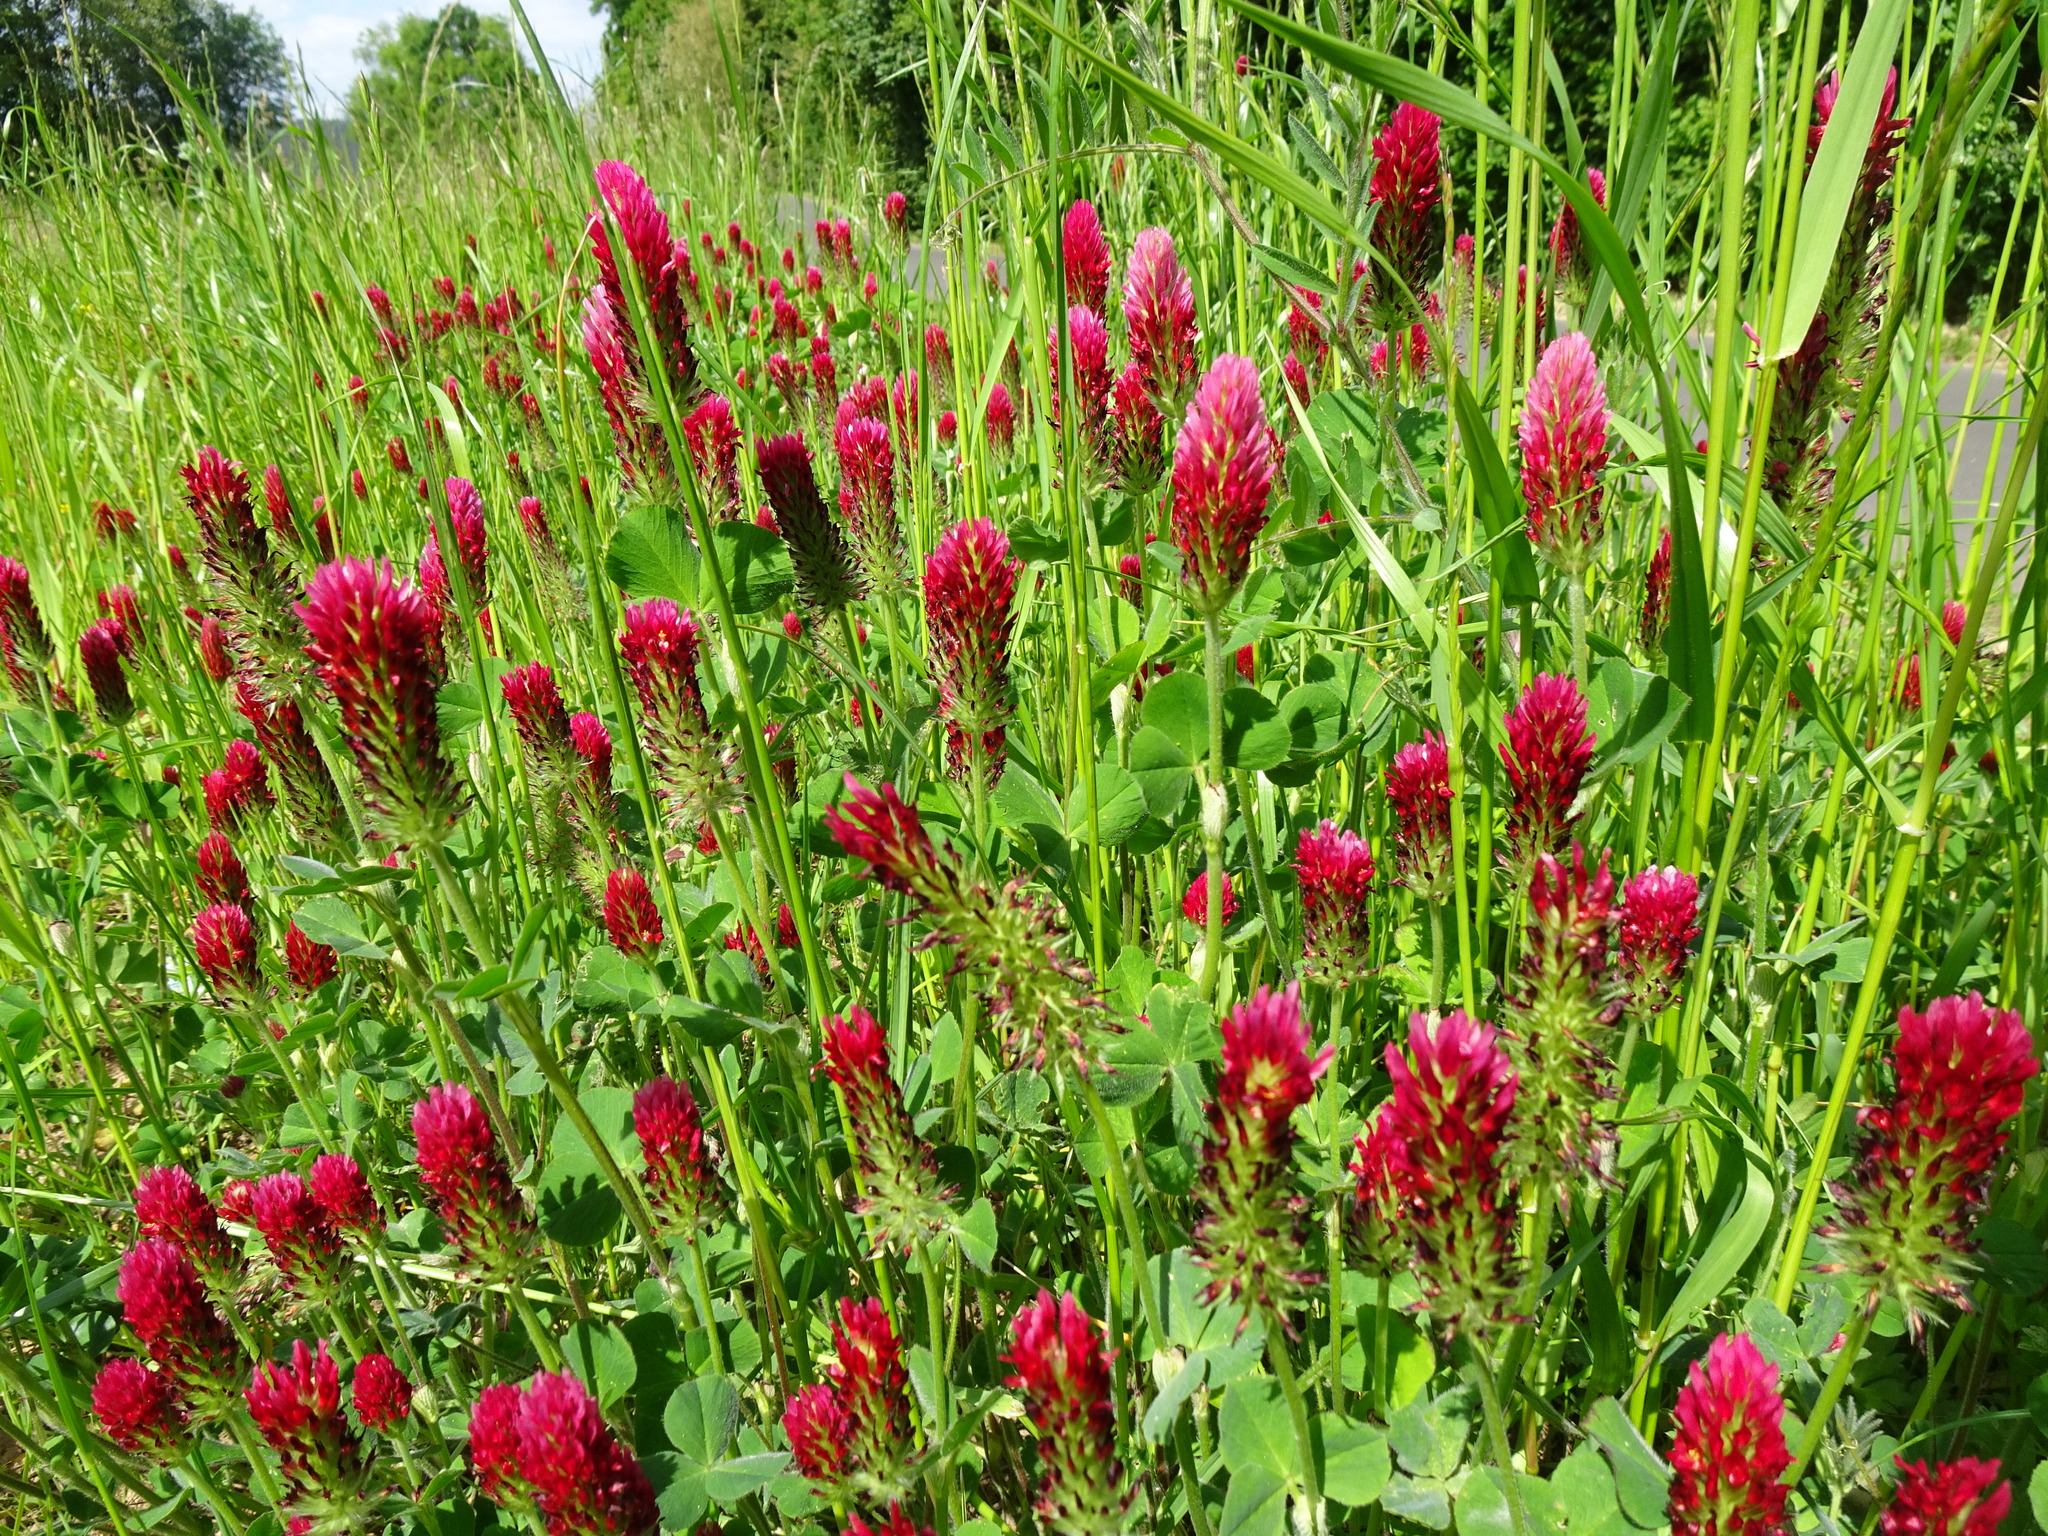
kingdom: Plantae
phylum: Tracheophyta
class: Magnoliopsida
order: Fabales
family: Fabaceae
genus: Trifolium
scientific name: Trifolium incarnatum
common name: Crimson clover
